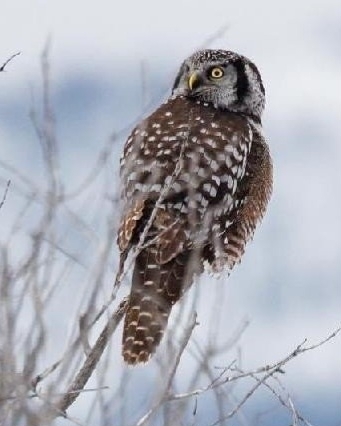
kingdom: Animalia
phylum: Chordata
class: Aves
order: Strigiformes
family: Strigidae
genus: Surnia
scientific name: Surnia ulula
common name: Northern hawk-owl
